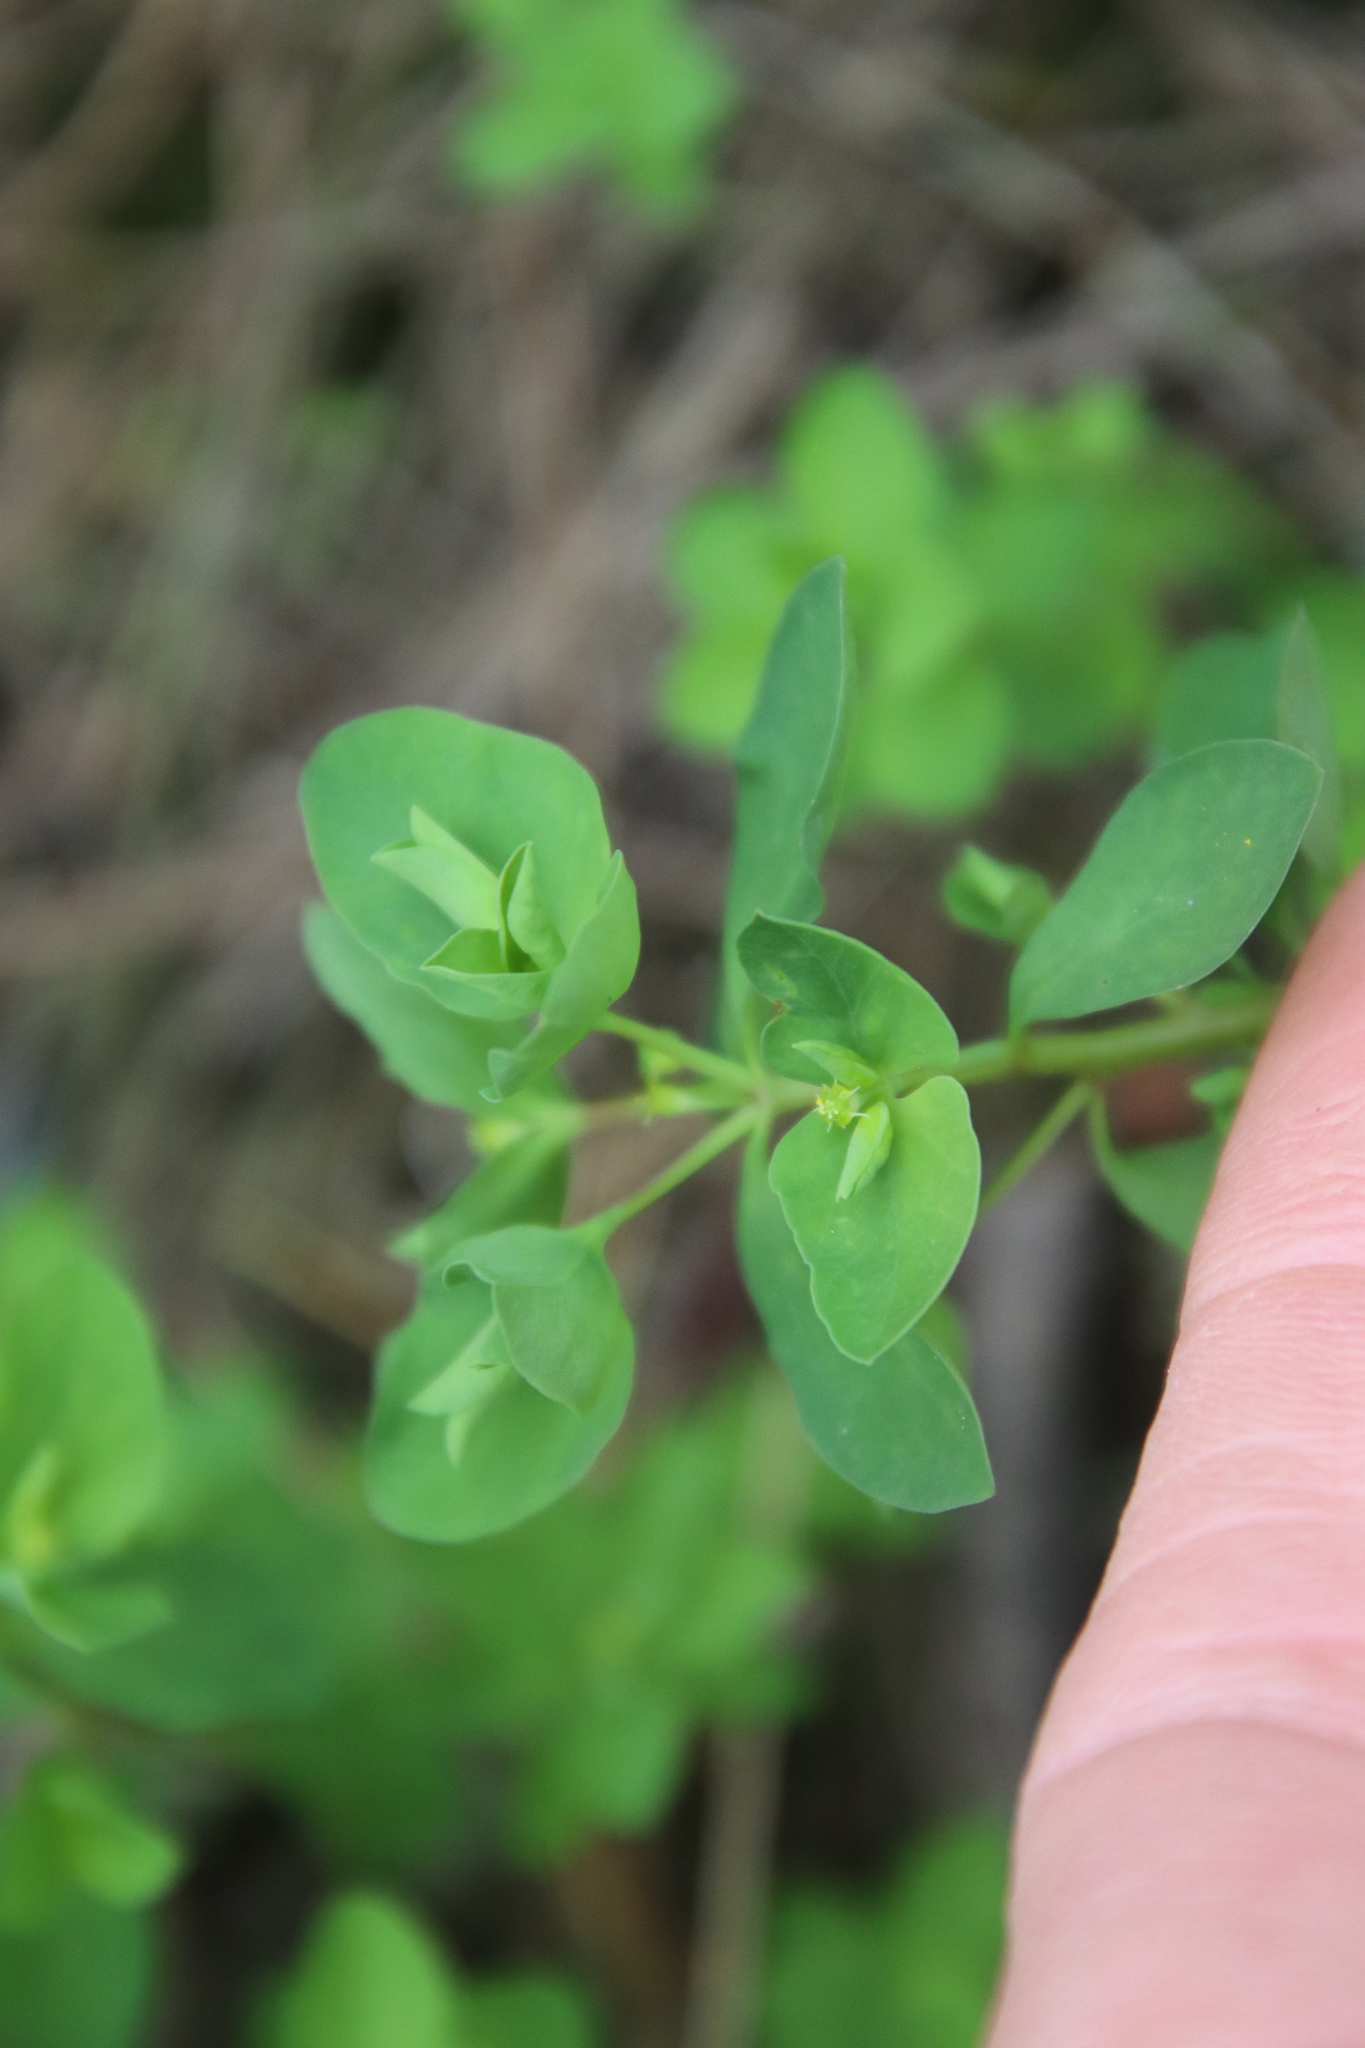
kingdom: Plantae
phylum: Tracheophyta
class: Magnoliopsida
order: Malpighiales
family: Euphorbiaceae
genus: Euphorbia
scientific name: Euphorbia peplus
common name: Petty spurge
